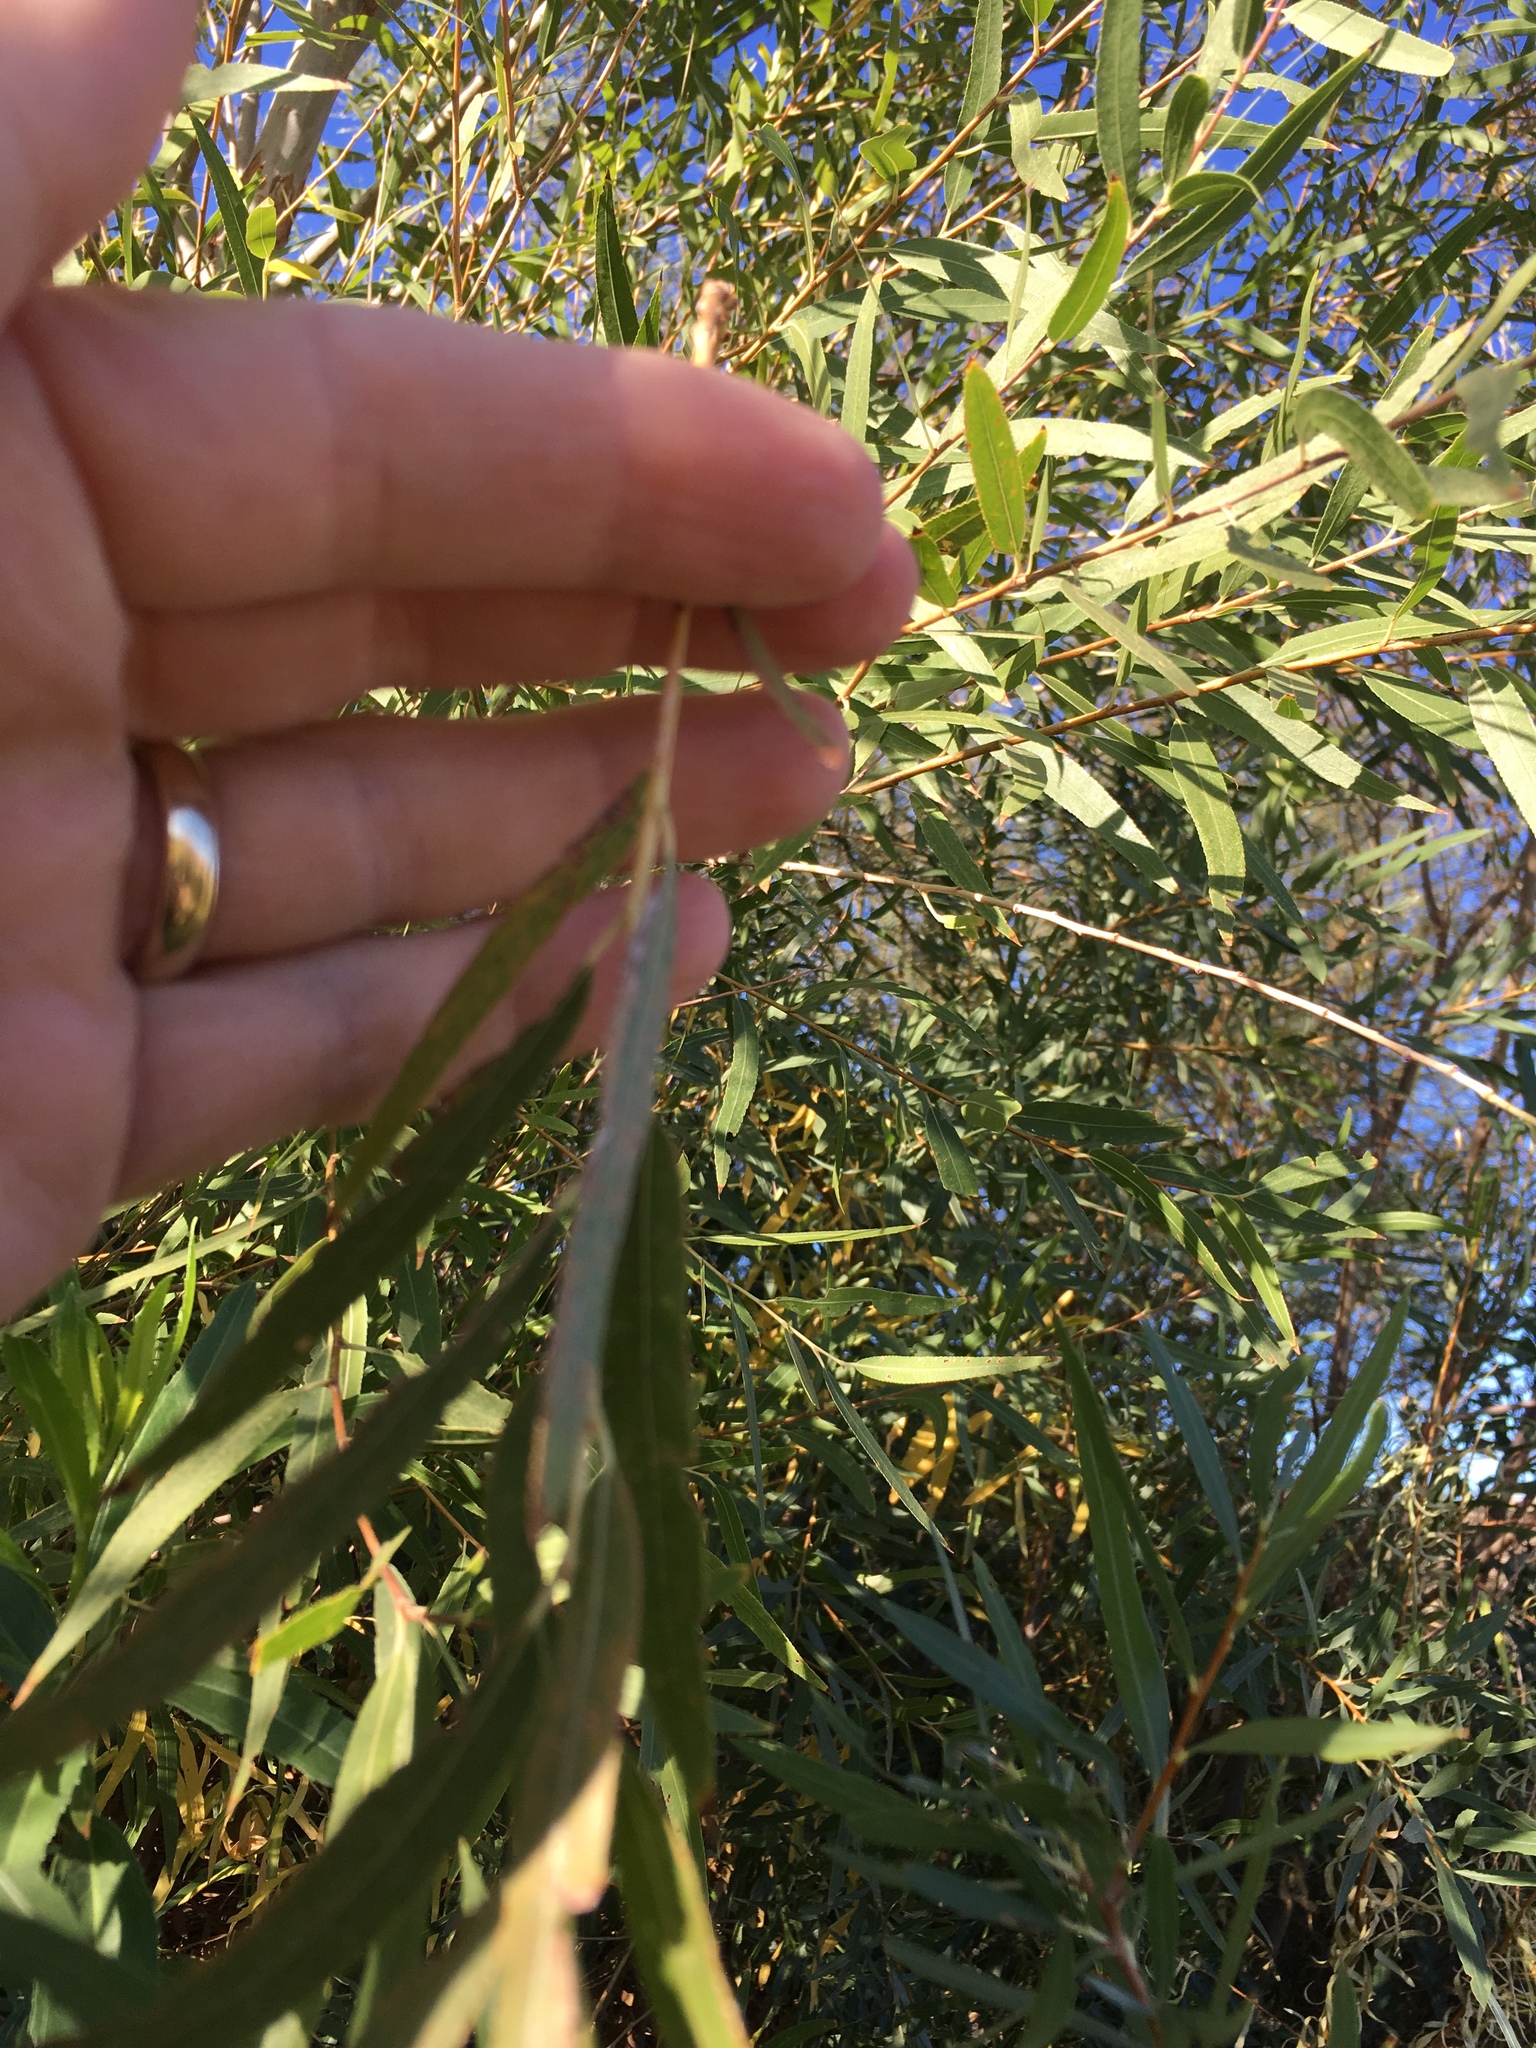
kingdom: Plantae
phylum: Tracheophyta
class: Magnoliopsida
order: Malpighiales
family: Salicaceae
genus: Salix
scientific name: Salix exigua
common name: Coyote willow
